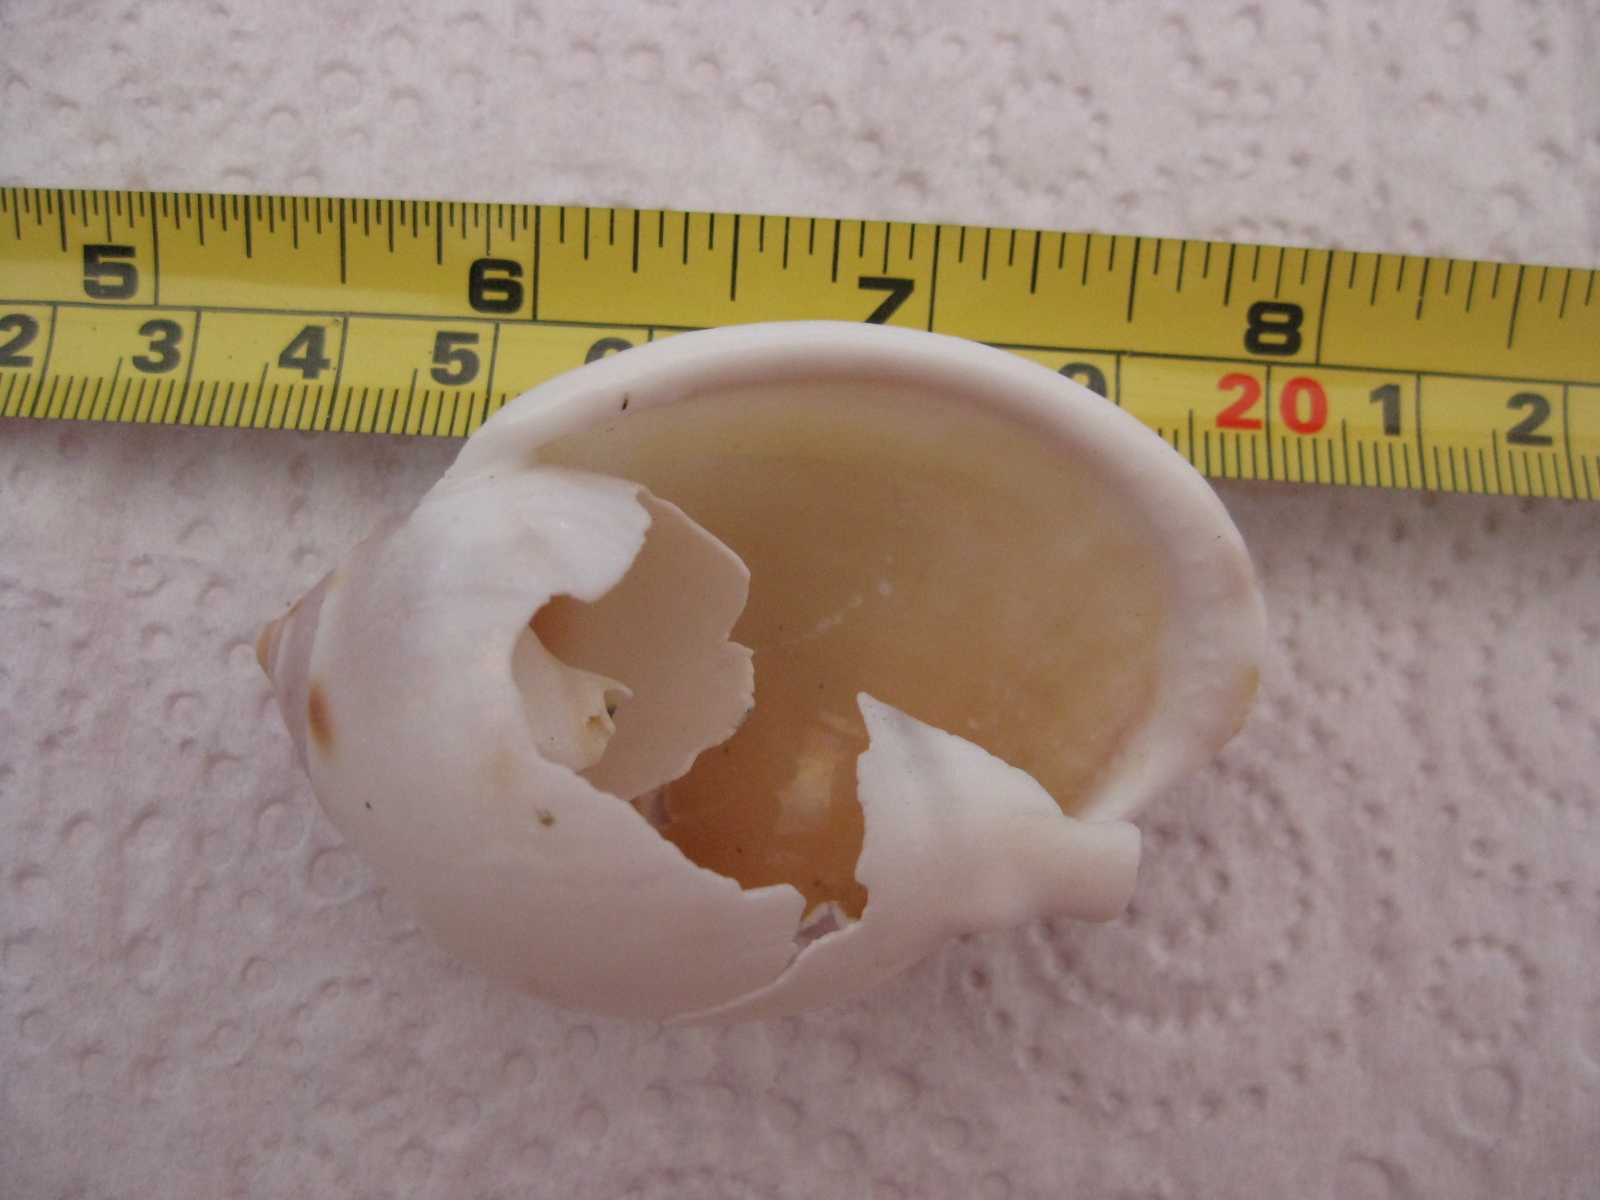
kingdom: Animalia
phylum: Mollusca
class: Gastropoda
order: Littorinimorpha
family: Cassidae
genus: Semicassis
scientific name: Semicassis labiata
